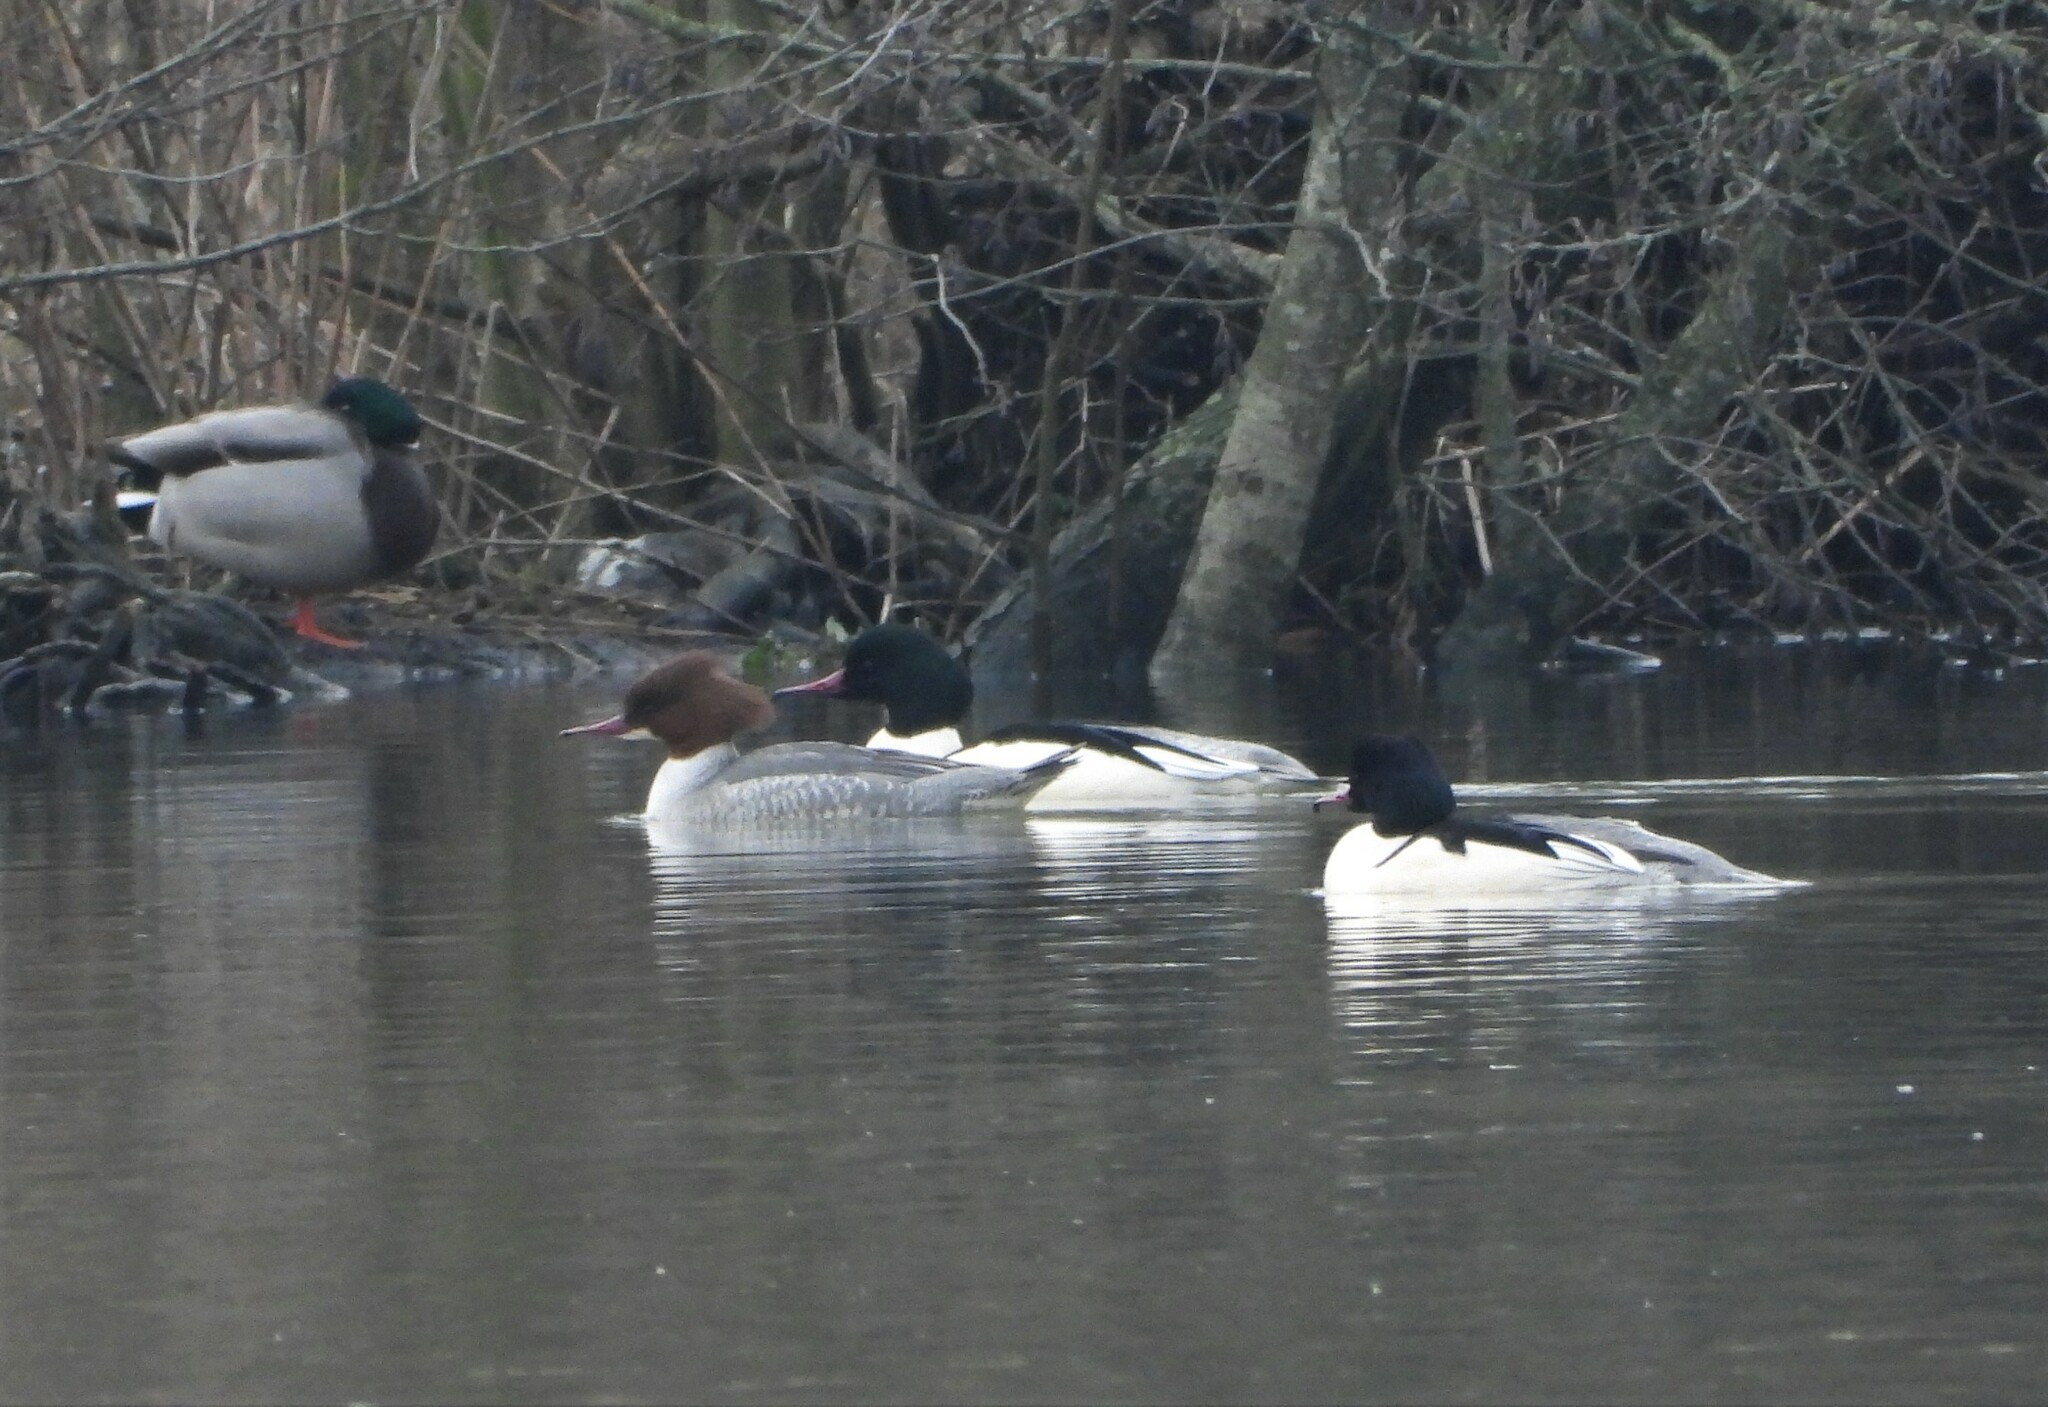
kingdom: Animalia
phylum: Chordata
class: Aves
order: Anseriformes
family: Anatidae
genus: Mergus
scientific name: Mergus merganser
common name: Common merganser
